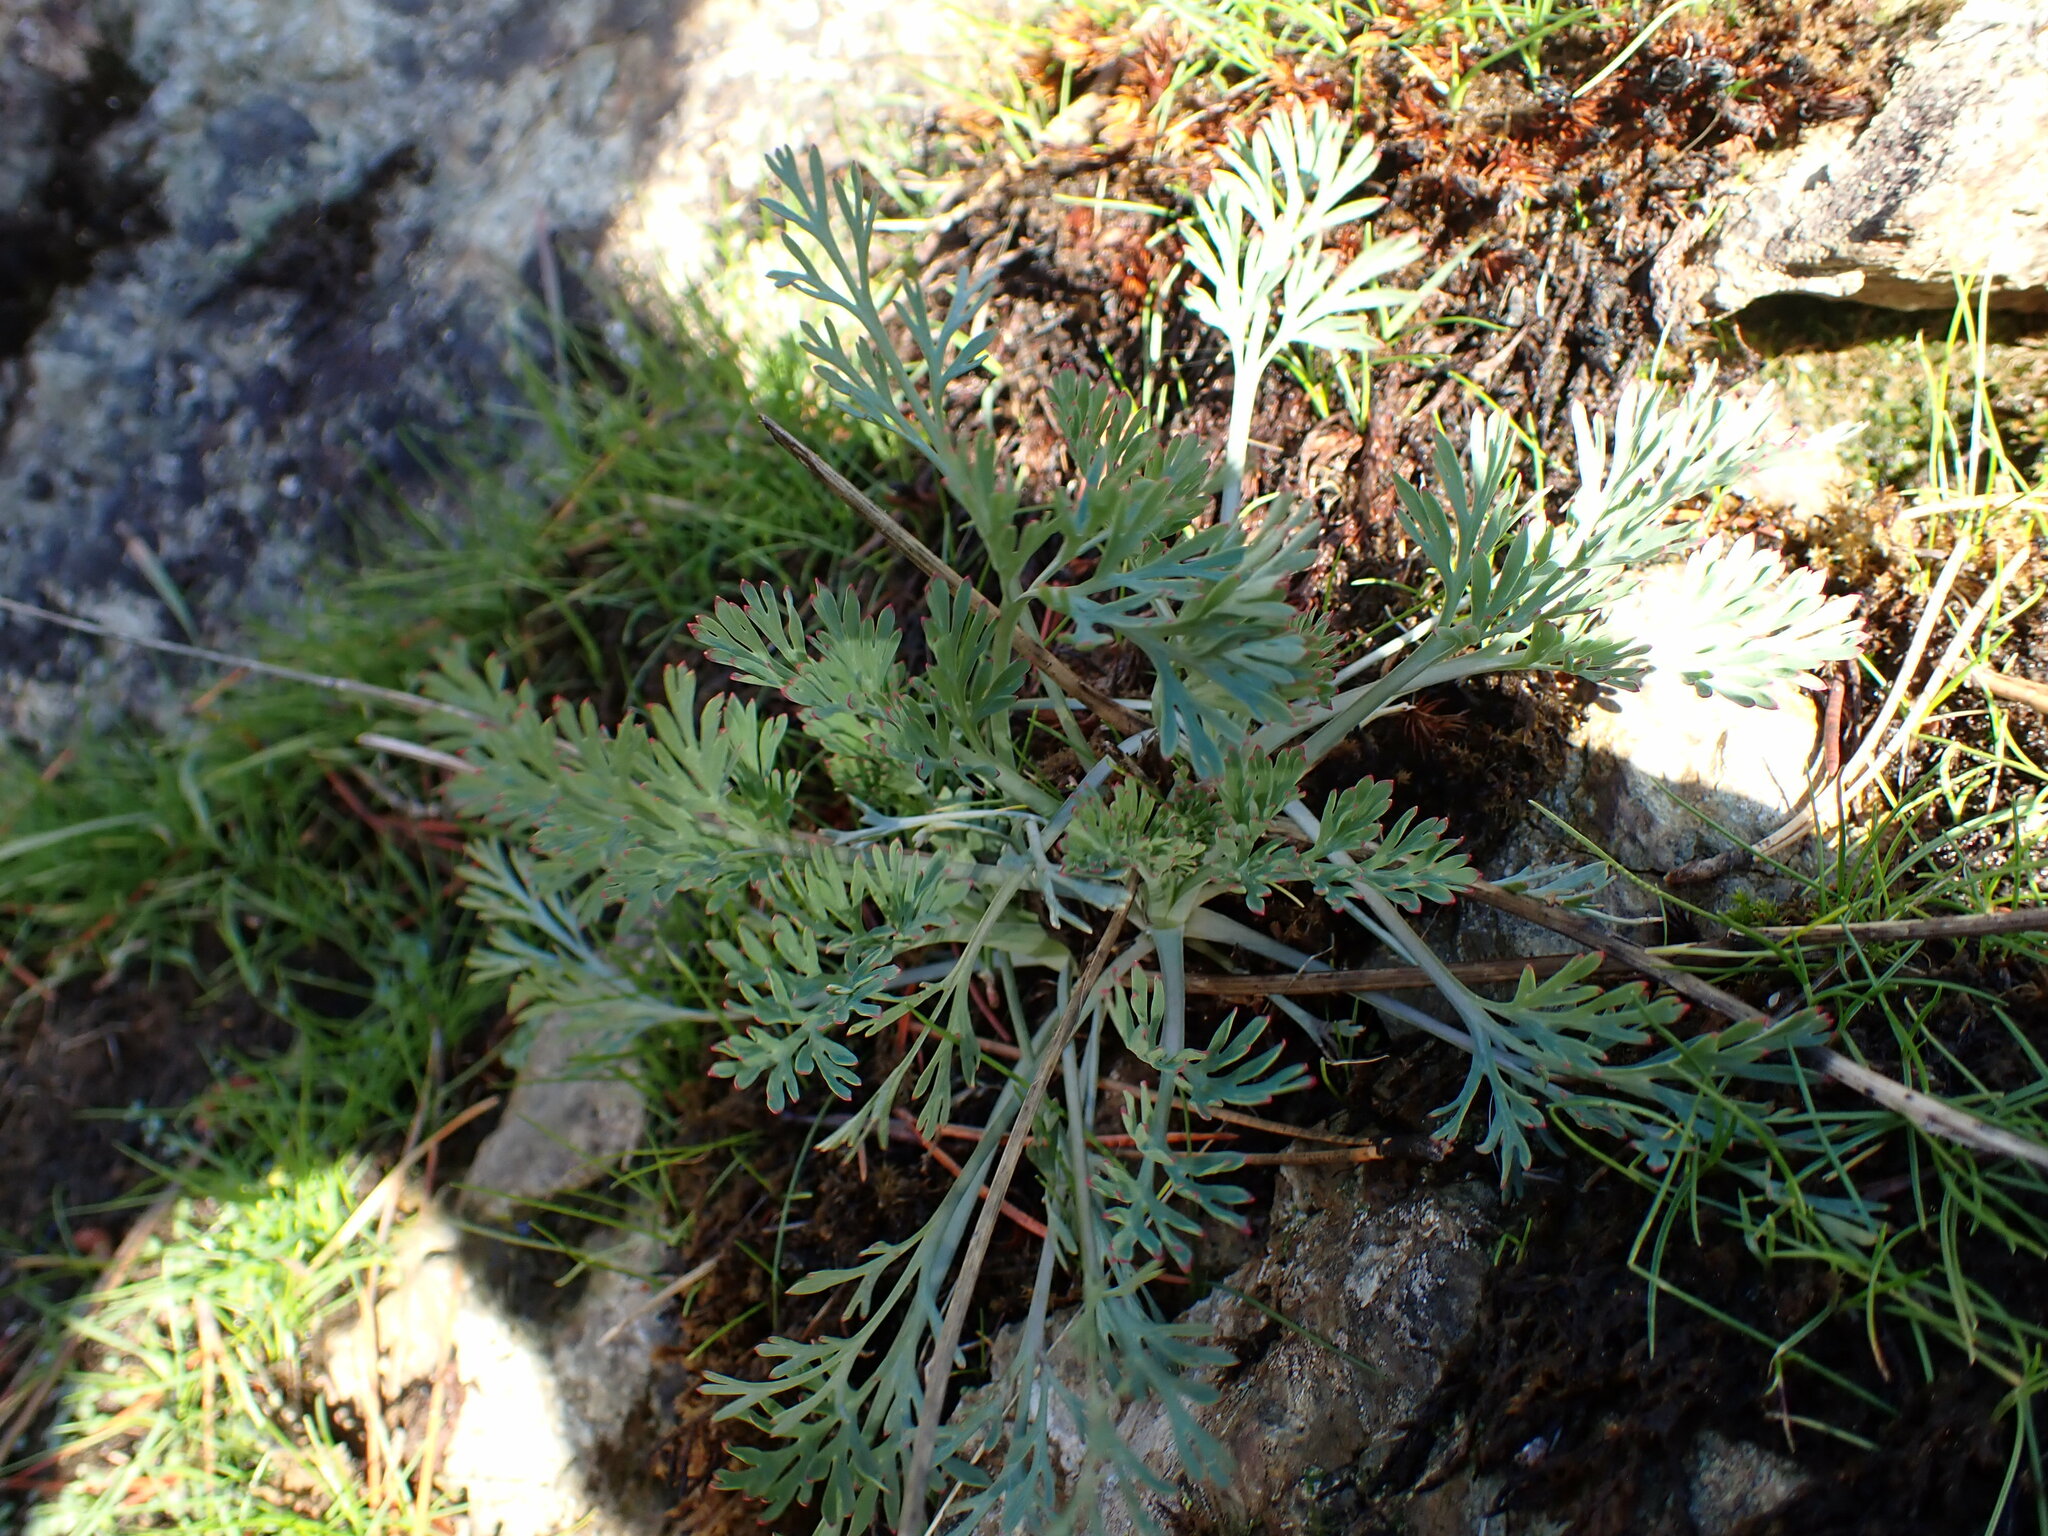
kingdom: Plantae
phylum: Tracheophyta
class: Magnoliopsida
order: Ranunculales
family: Papaveraceae
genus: Eschscholzia
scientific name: Eschscholzia californica
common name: California poppy
